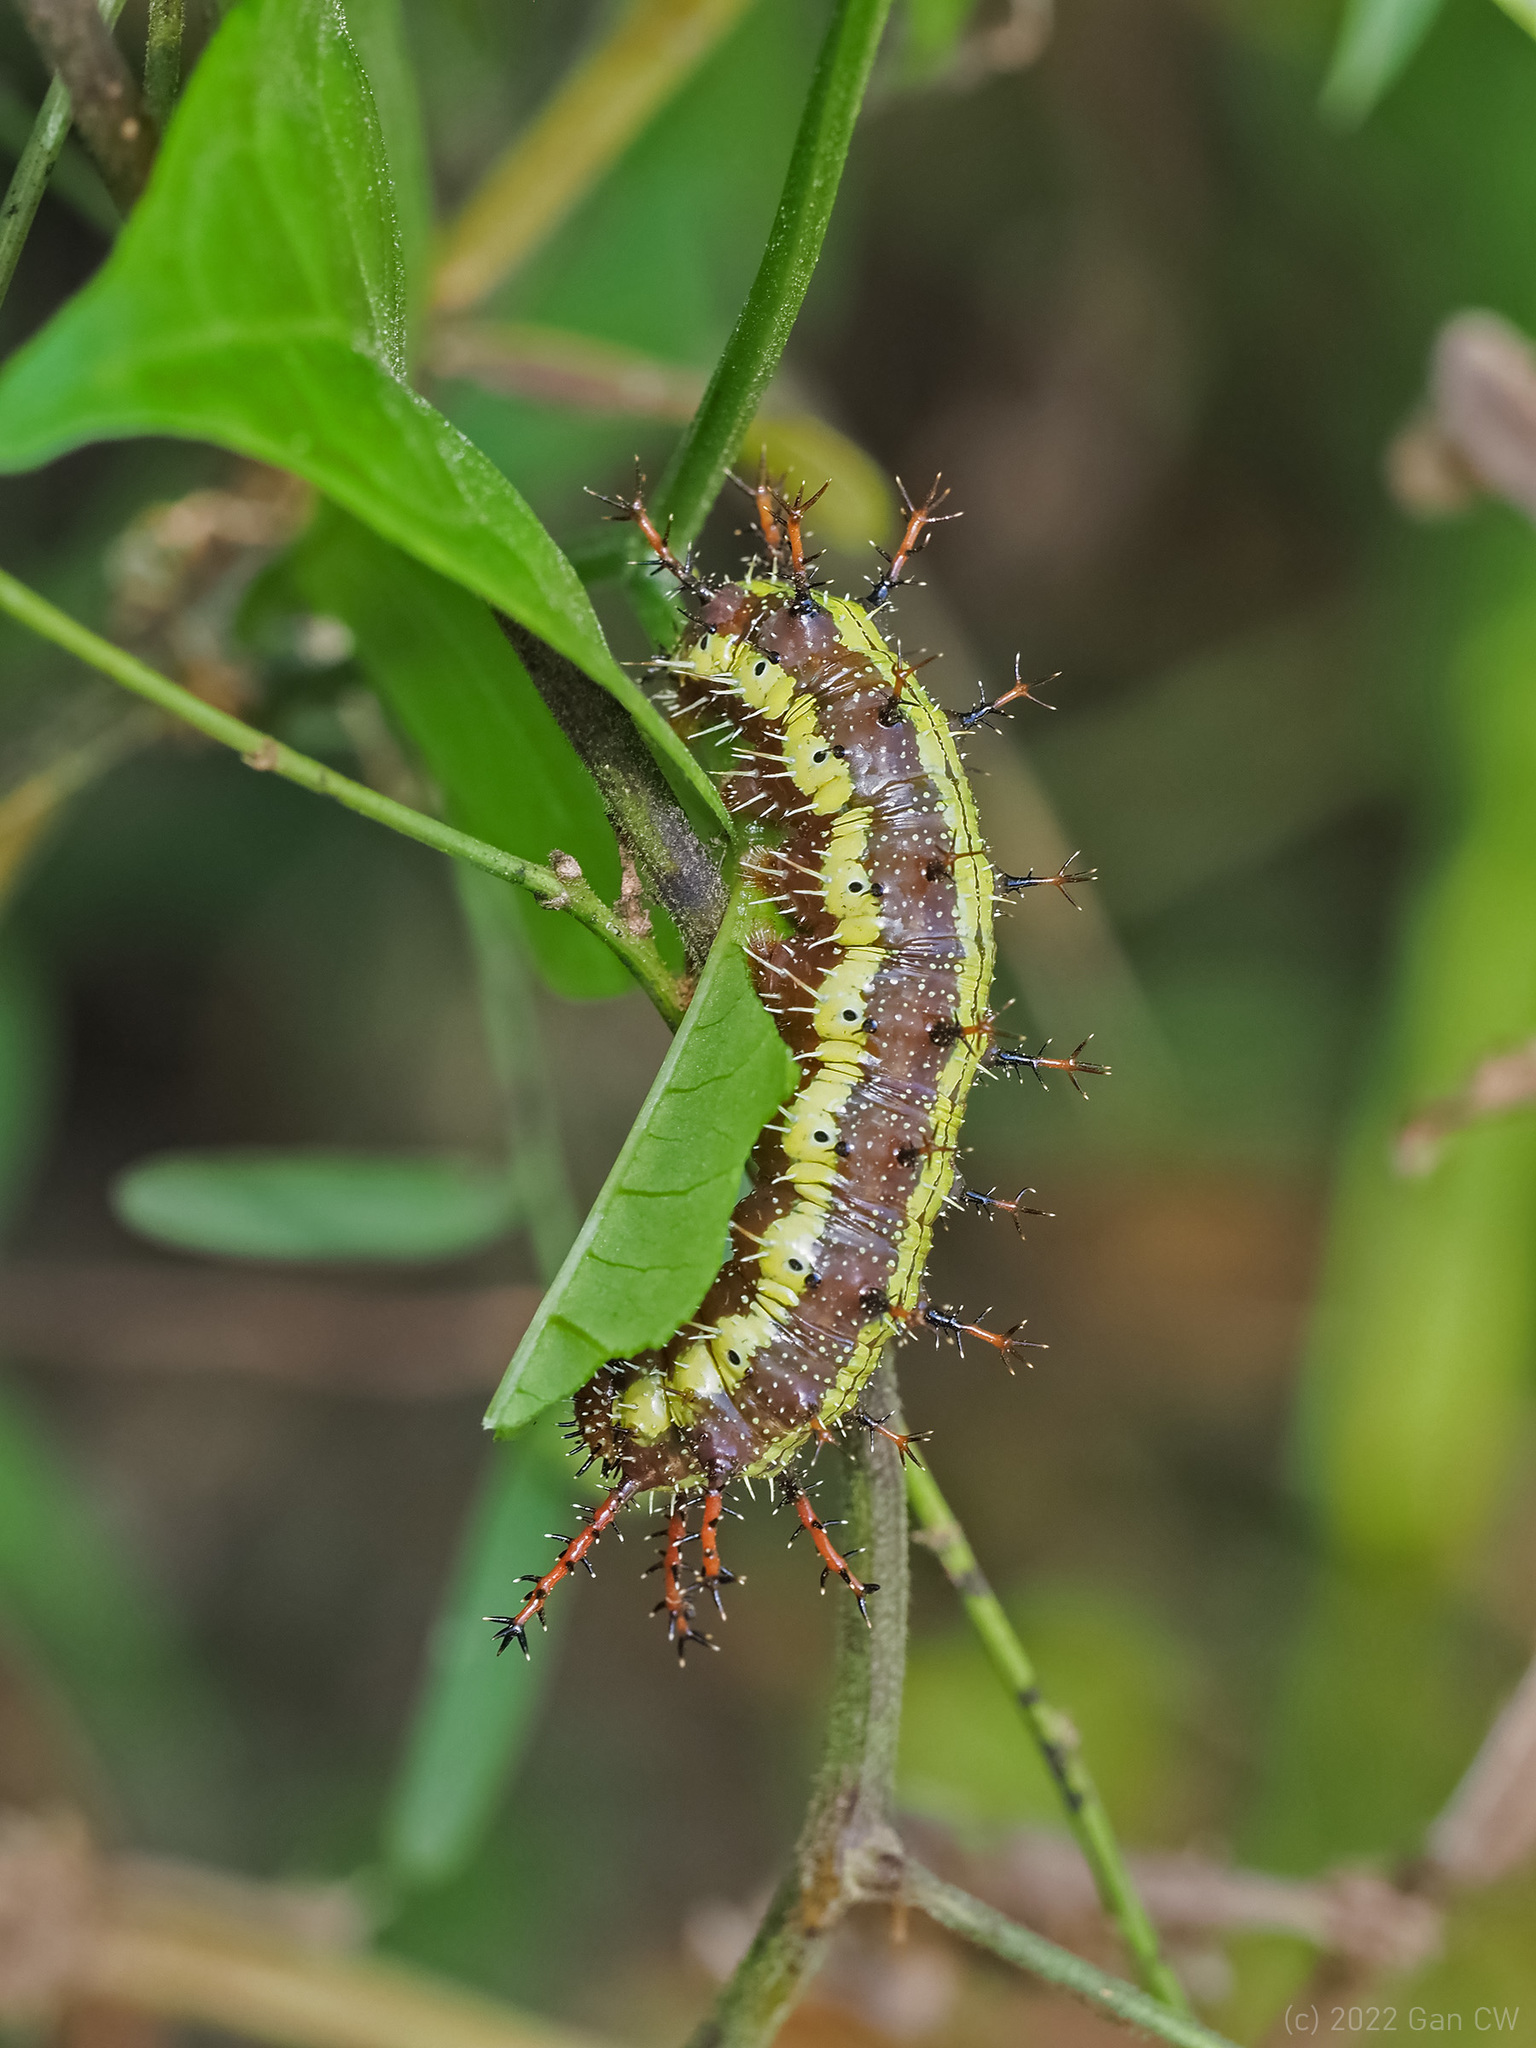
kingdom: Animalia
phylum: Arthropoda
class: Insecta
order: Lepidoptera
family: Nymphalidae
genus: Kallima
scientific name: Kallima sylvia
